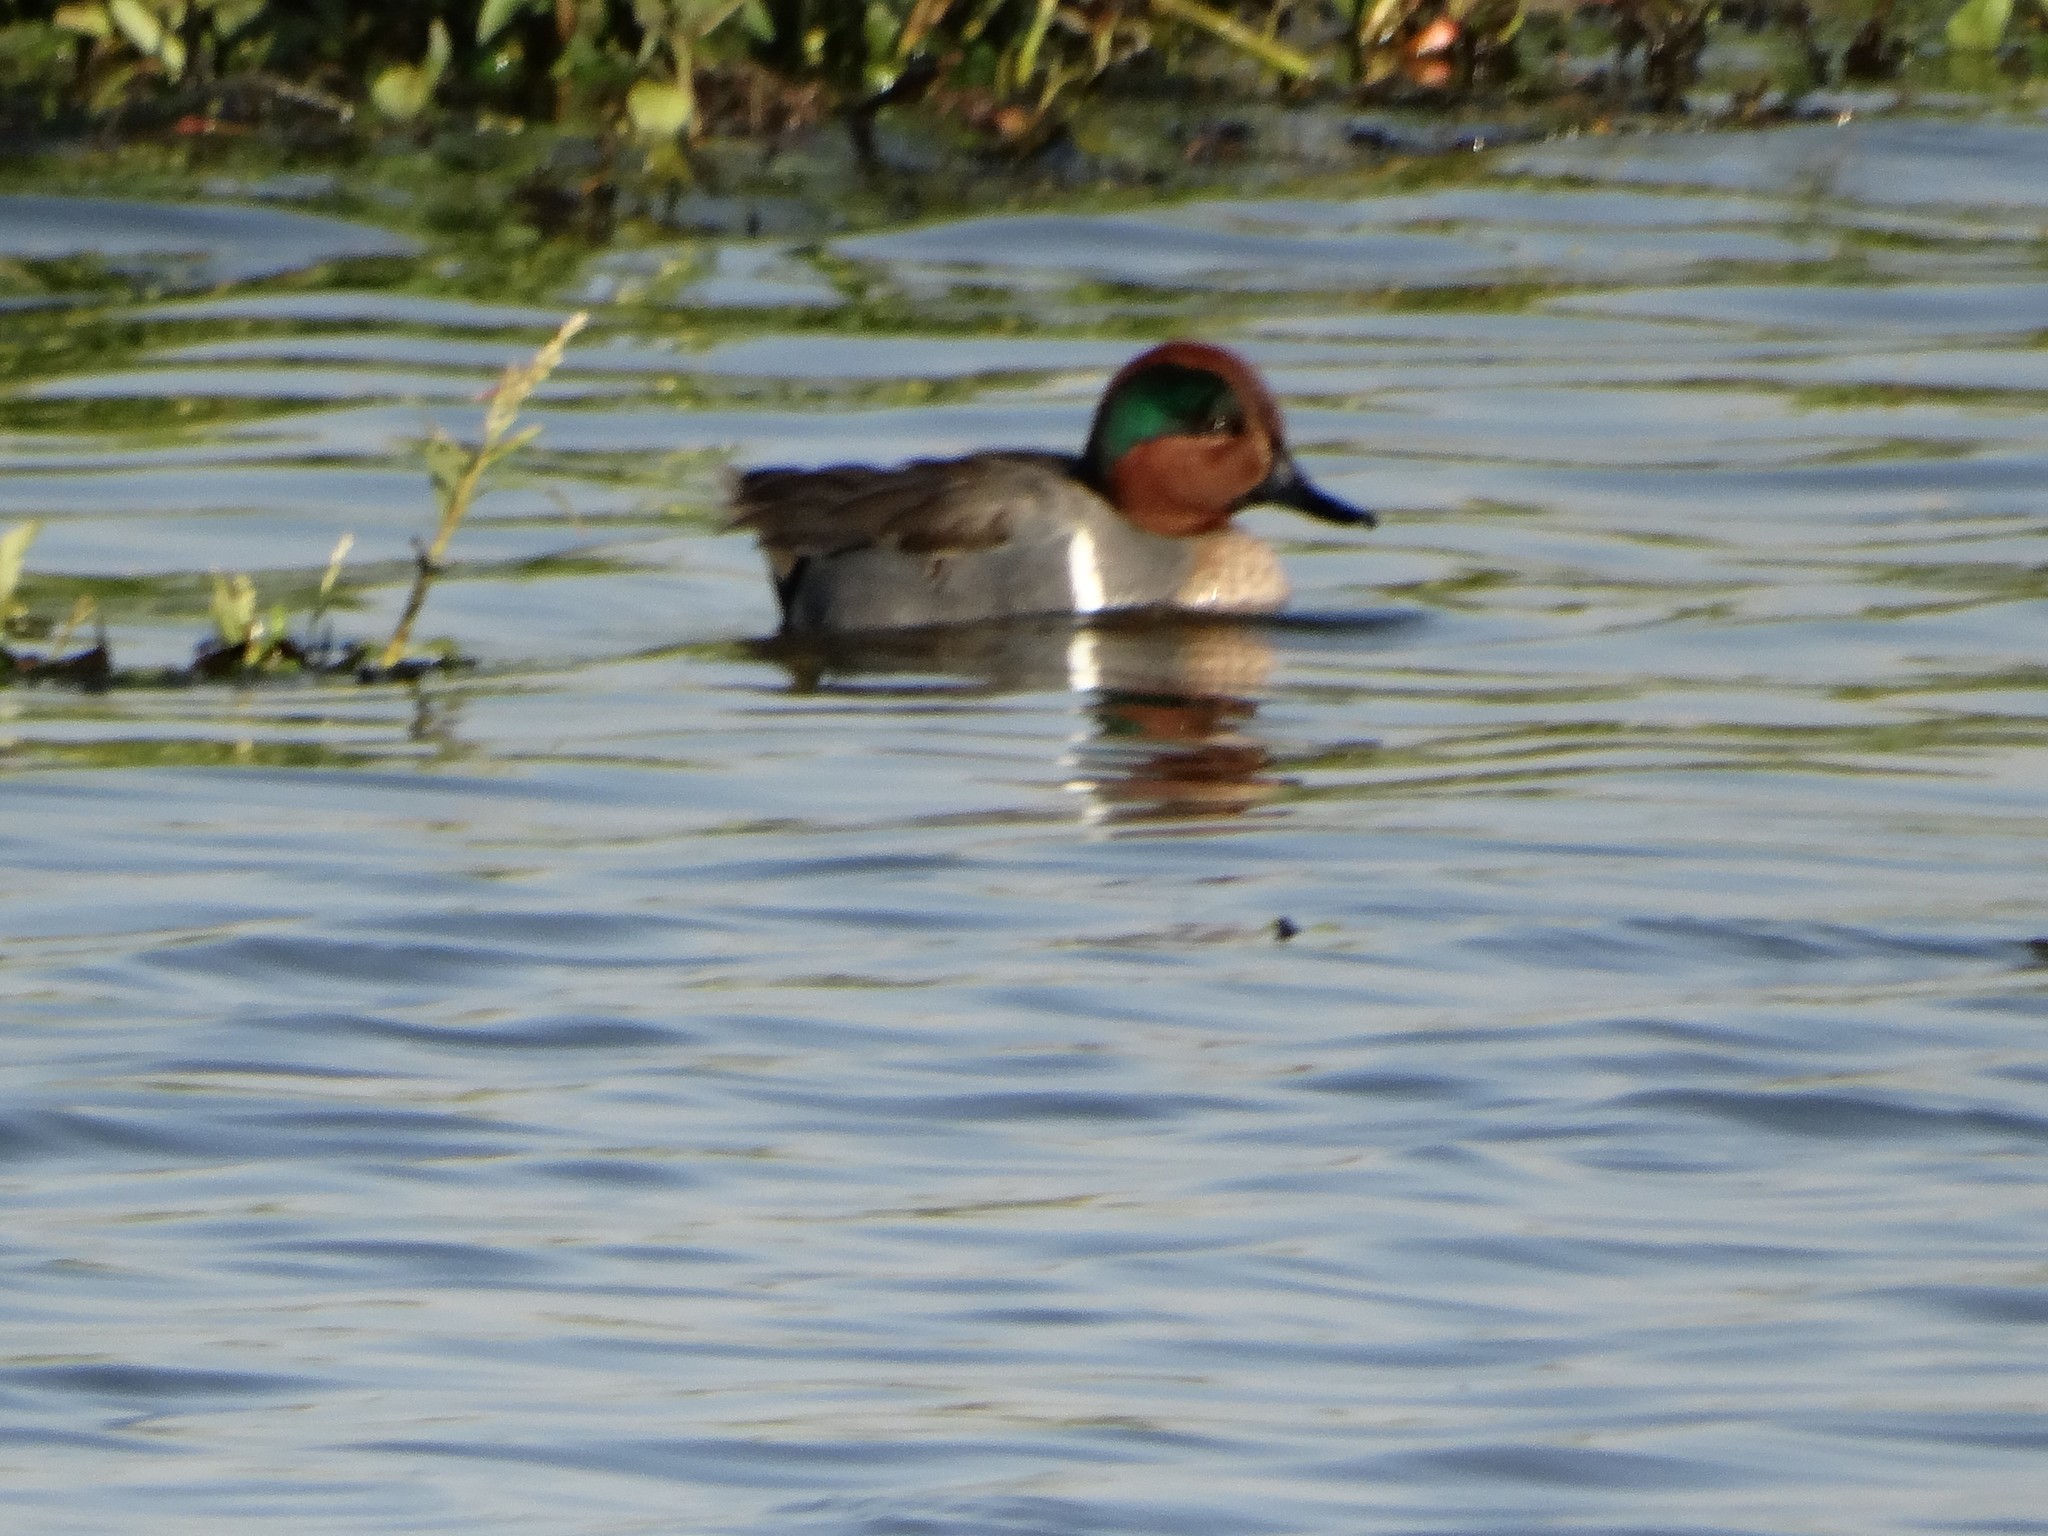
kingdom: Animalia
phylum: Chordata
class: Aves
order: Anseriformes
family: Anatidae
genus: Anas
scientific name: Anas carolinensis
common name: Green-winged teal
